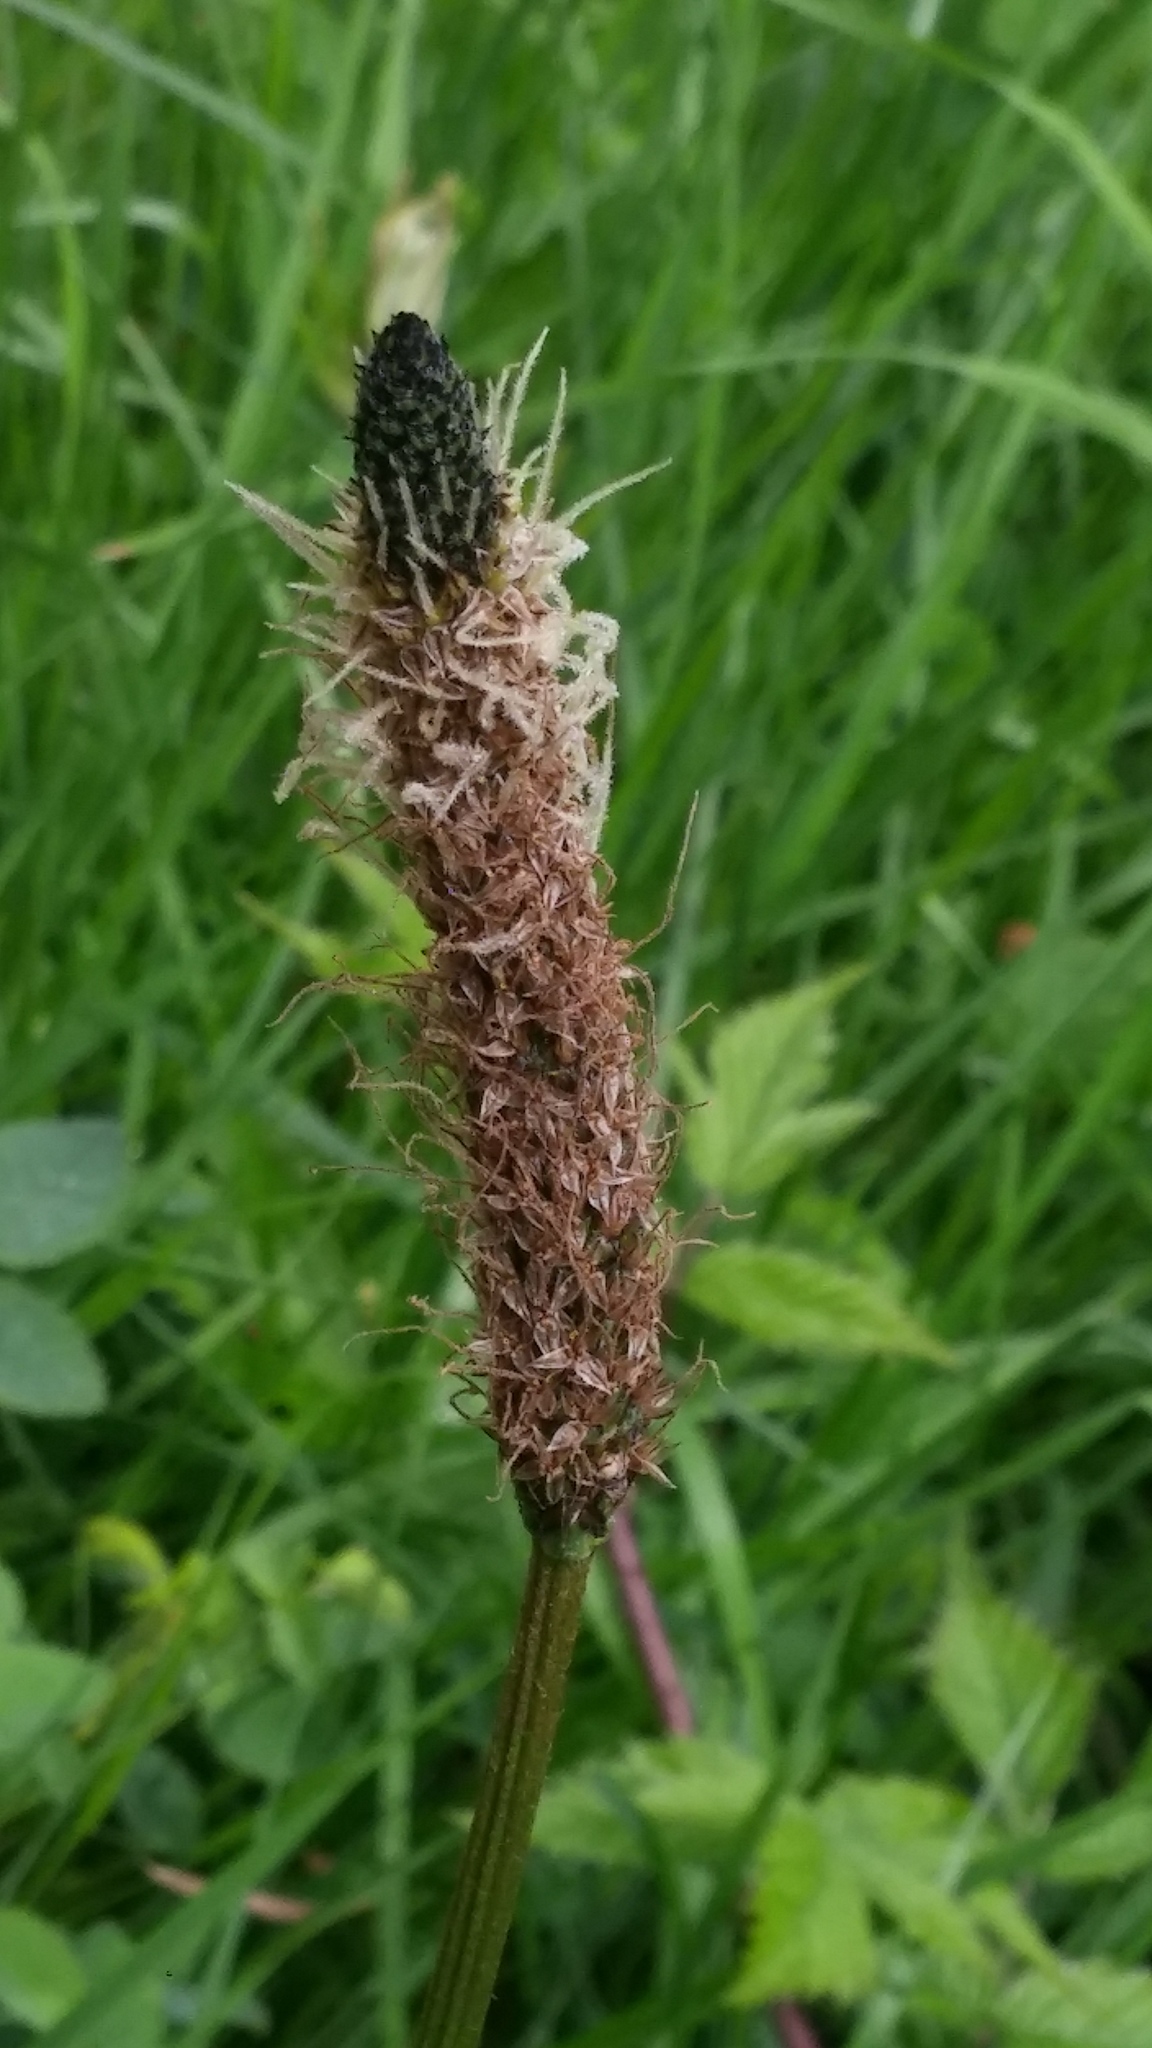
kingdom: Plantae
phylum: Tracheophyta
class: Magnoliopsida
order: Lamiales
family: Plantaginaceae
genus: Plantago
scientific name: Plantago lanceolata
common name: Ribwort plantain
